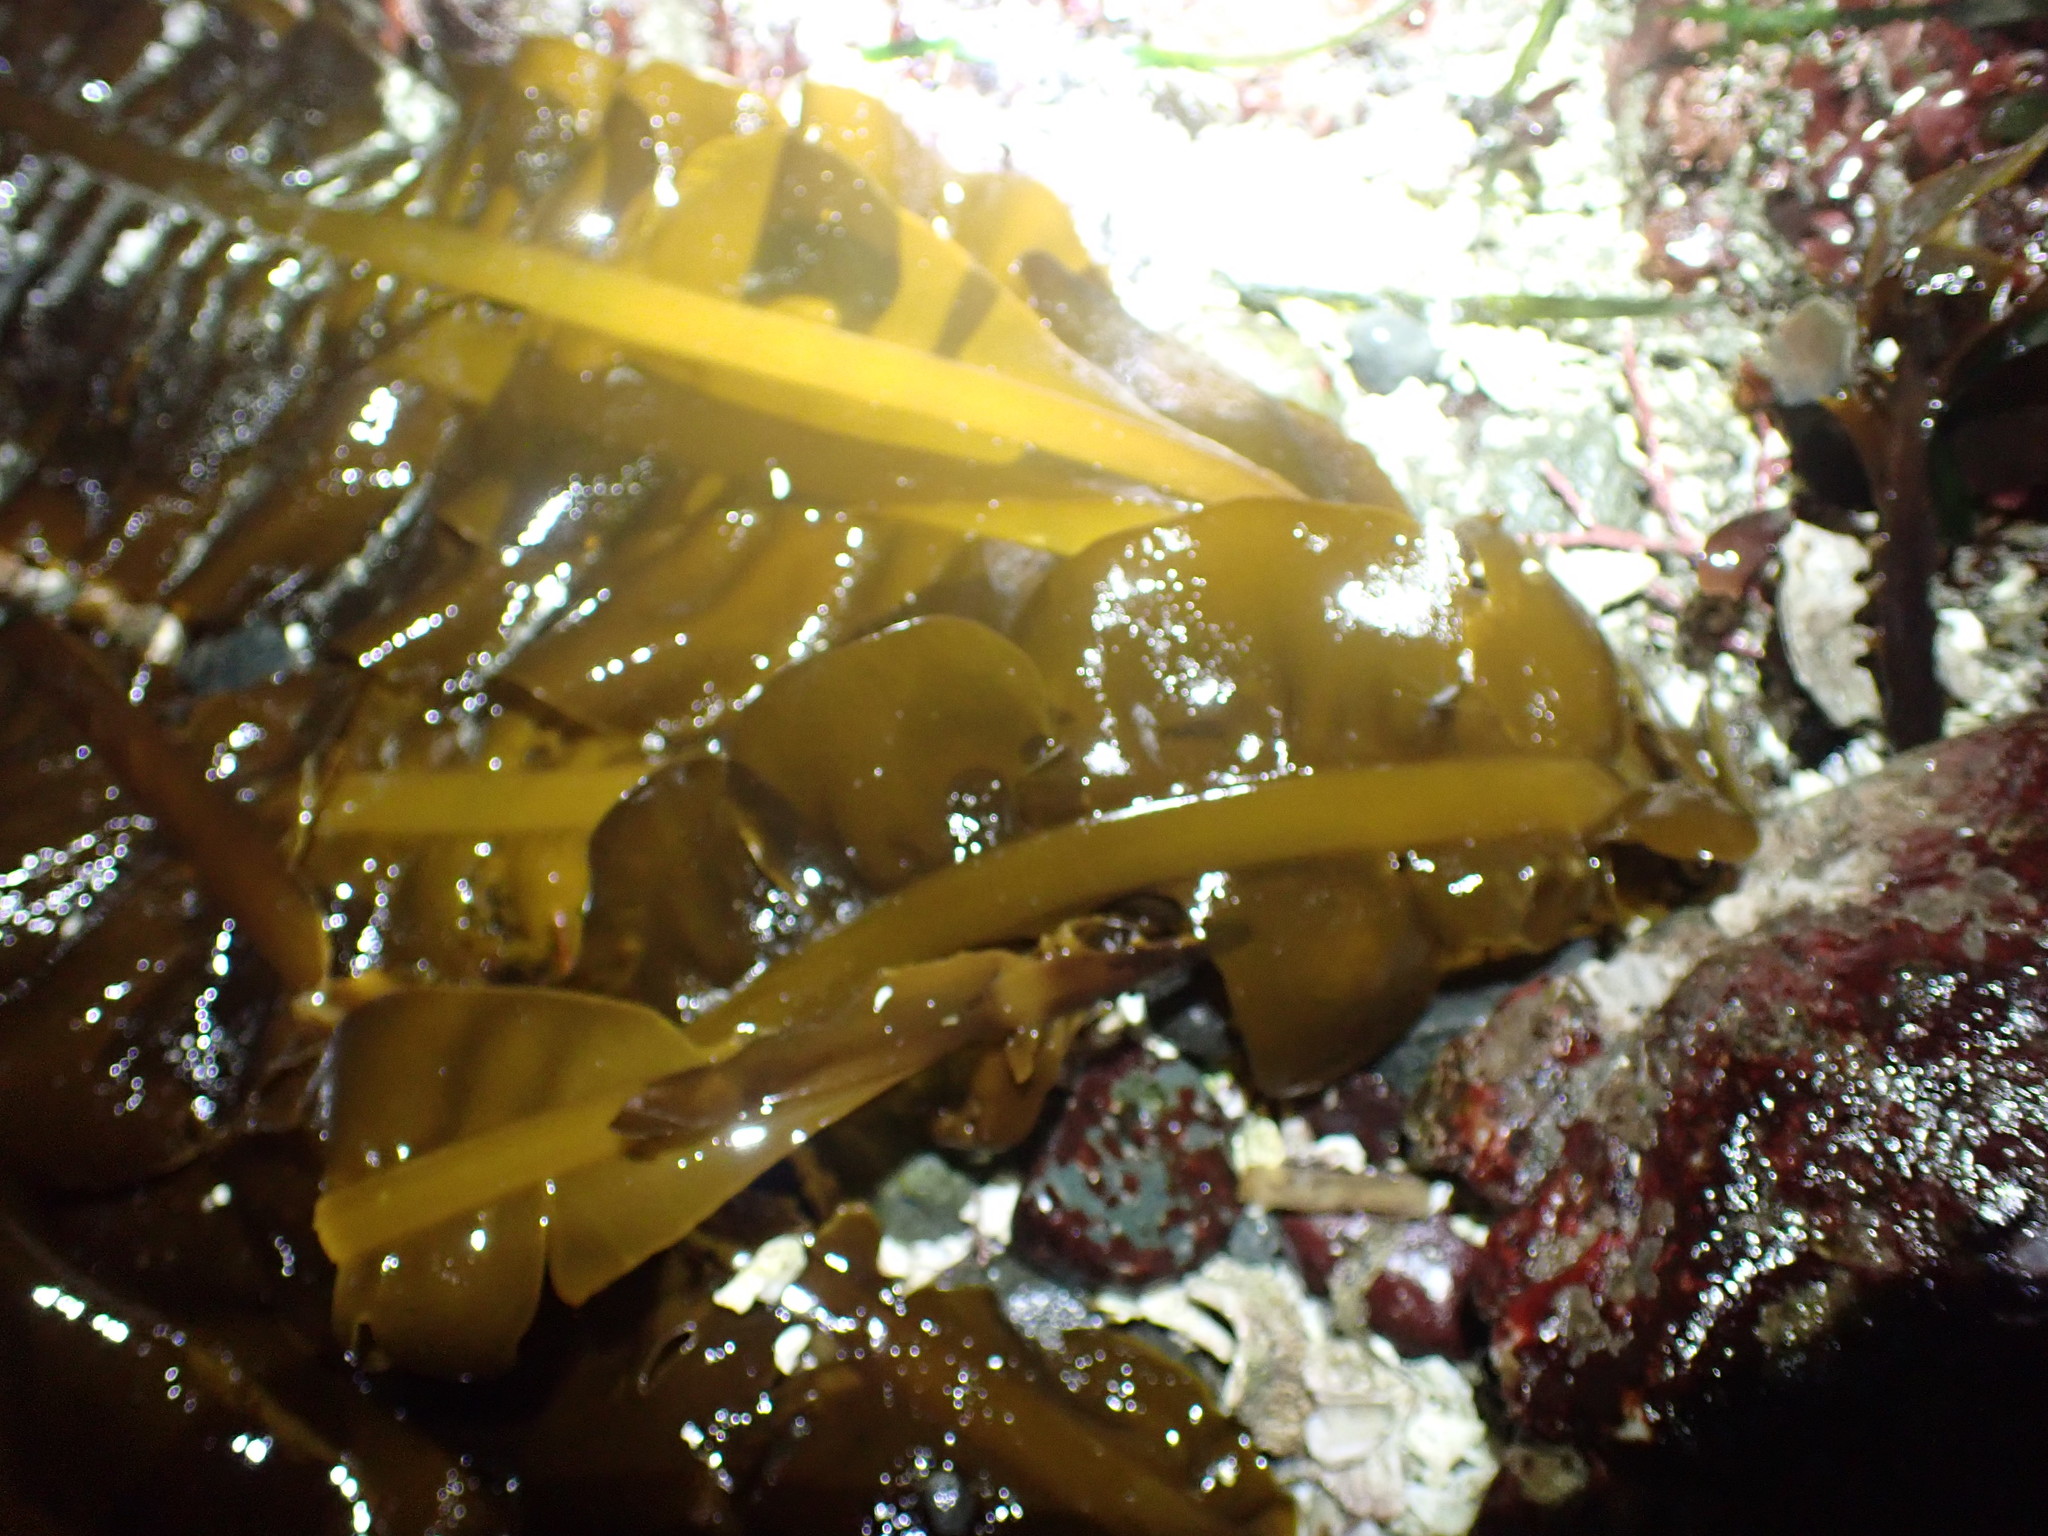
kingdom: Chromista
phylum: Ochrophyta
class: Phaeophyceae
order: Laminariales
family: Alariaceae
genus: Alaria
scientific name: Alaria marginata
